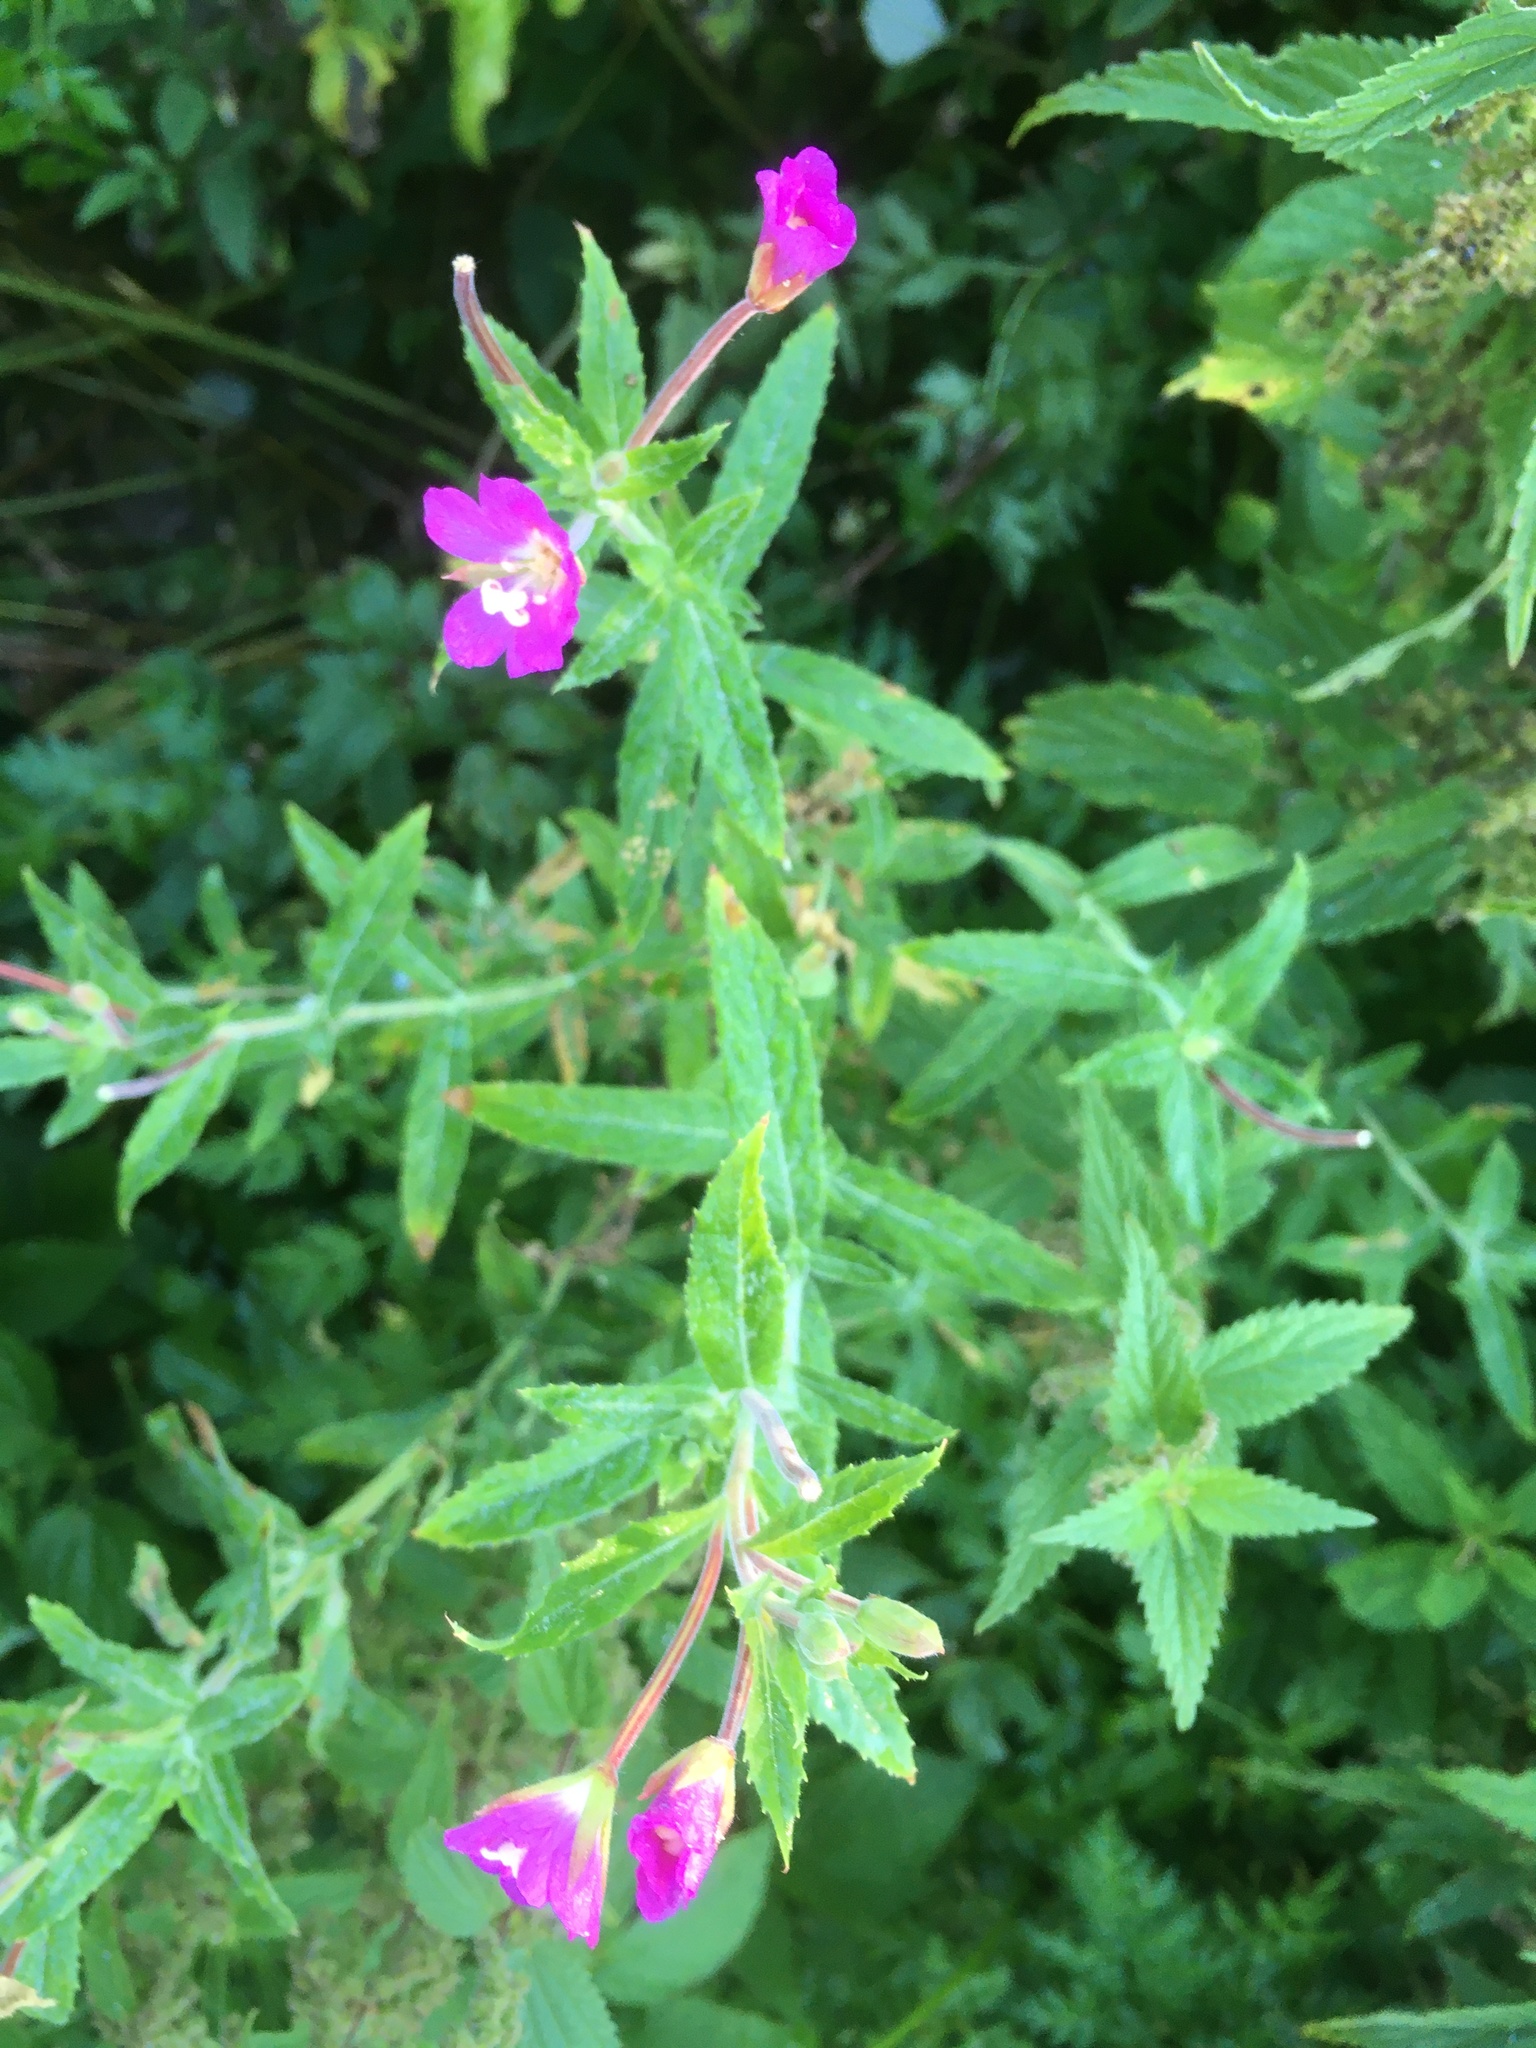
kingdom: Plantae
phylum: Tracheophyta
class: Magnoliopsida
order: Myrtales
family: Onagraceae
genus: Epilobium
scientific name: Epilobium hirsutum
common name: Great willowherb
